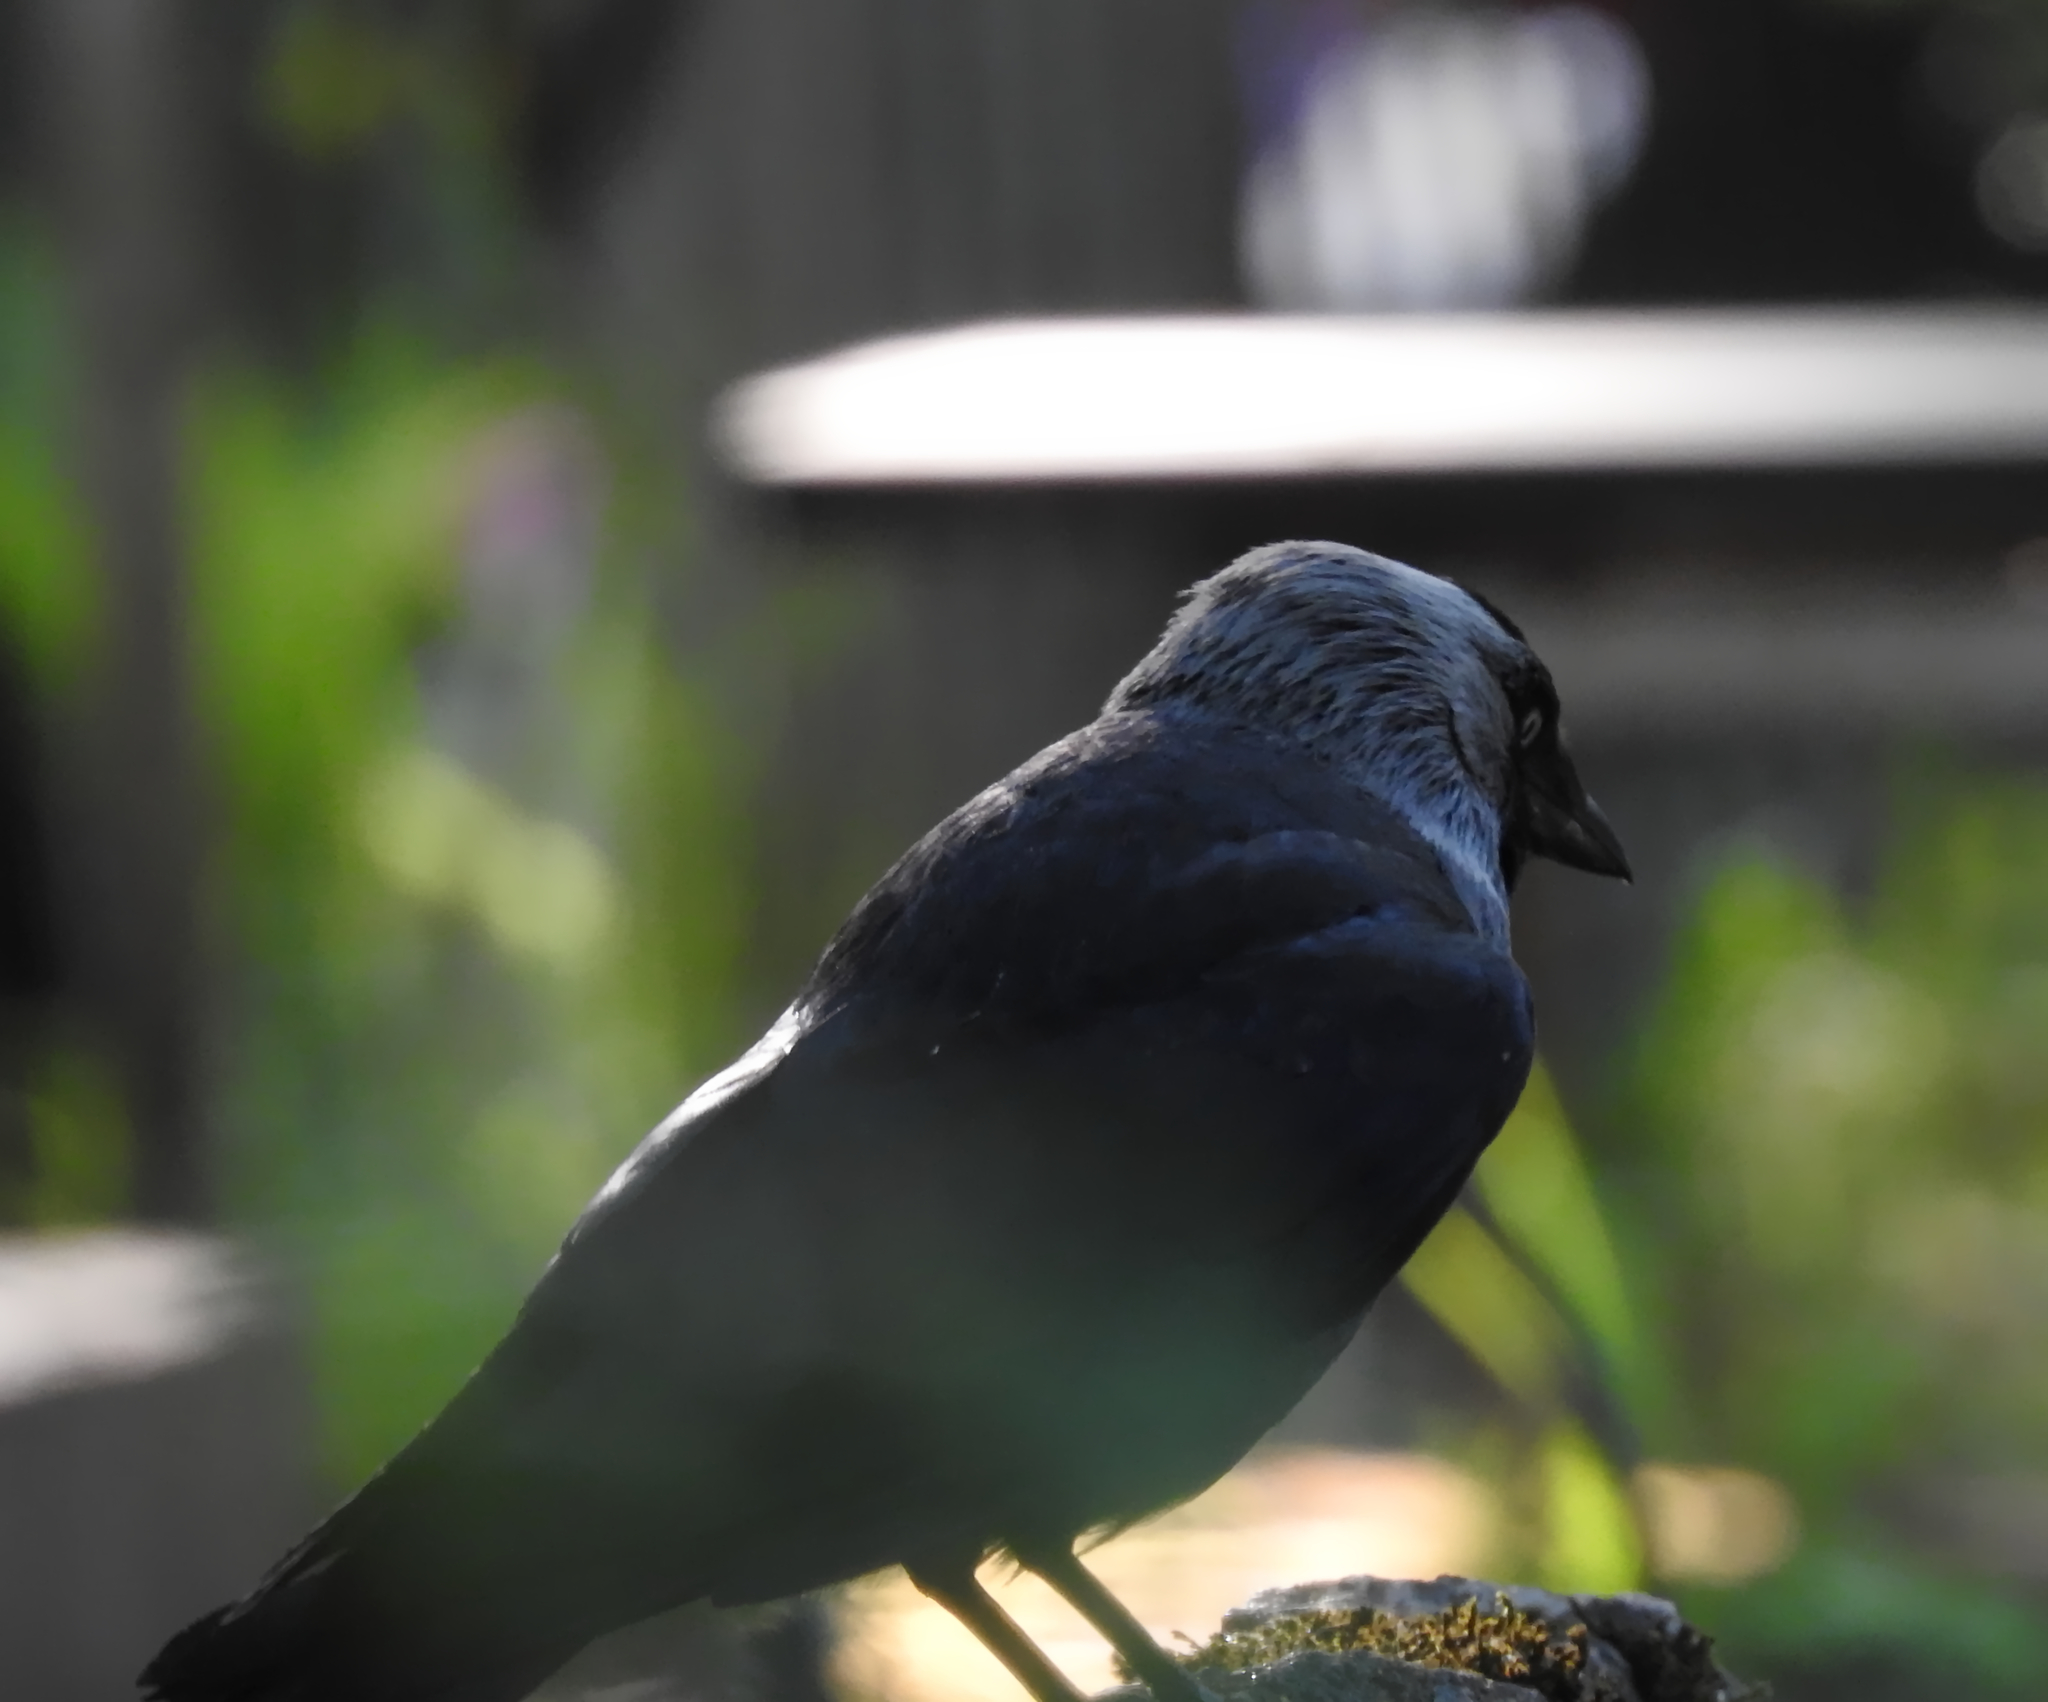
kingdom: Animalia
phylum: Chordata
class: Aves
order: Passeriformes
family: Corvidae
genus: Coloeus
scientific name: Coloeus monedula
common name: Western jackdaw
